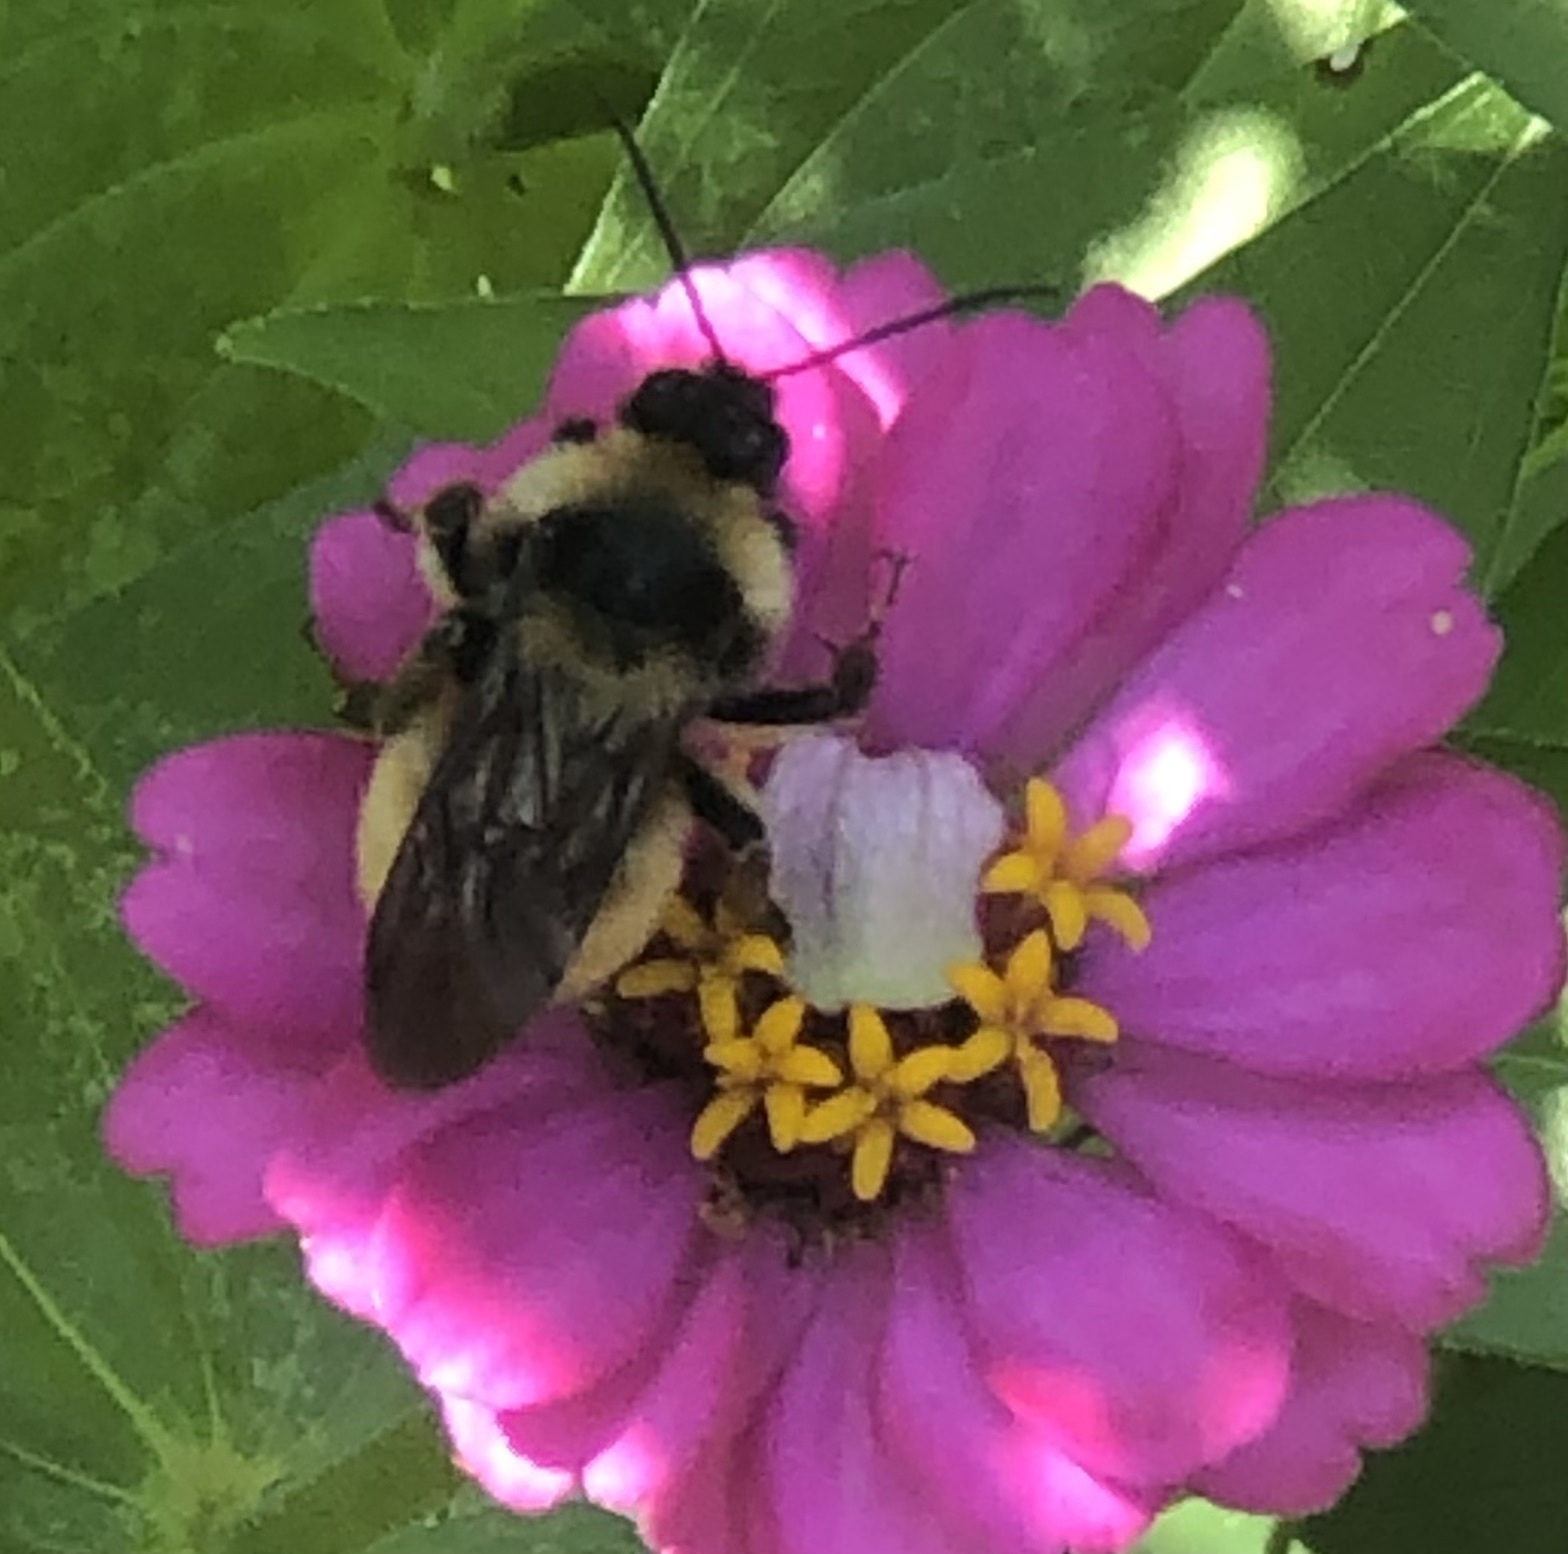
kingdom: Animalia
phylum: Arthropoda
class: Insecta
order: Hymenoptera
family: Apidae
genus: Bombus
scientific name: Bombus pensylvanicus
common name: Bumble bee
